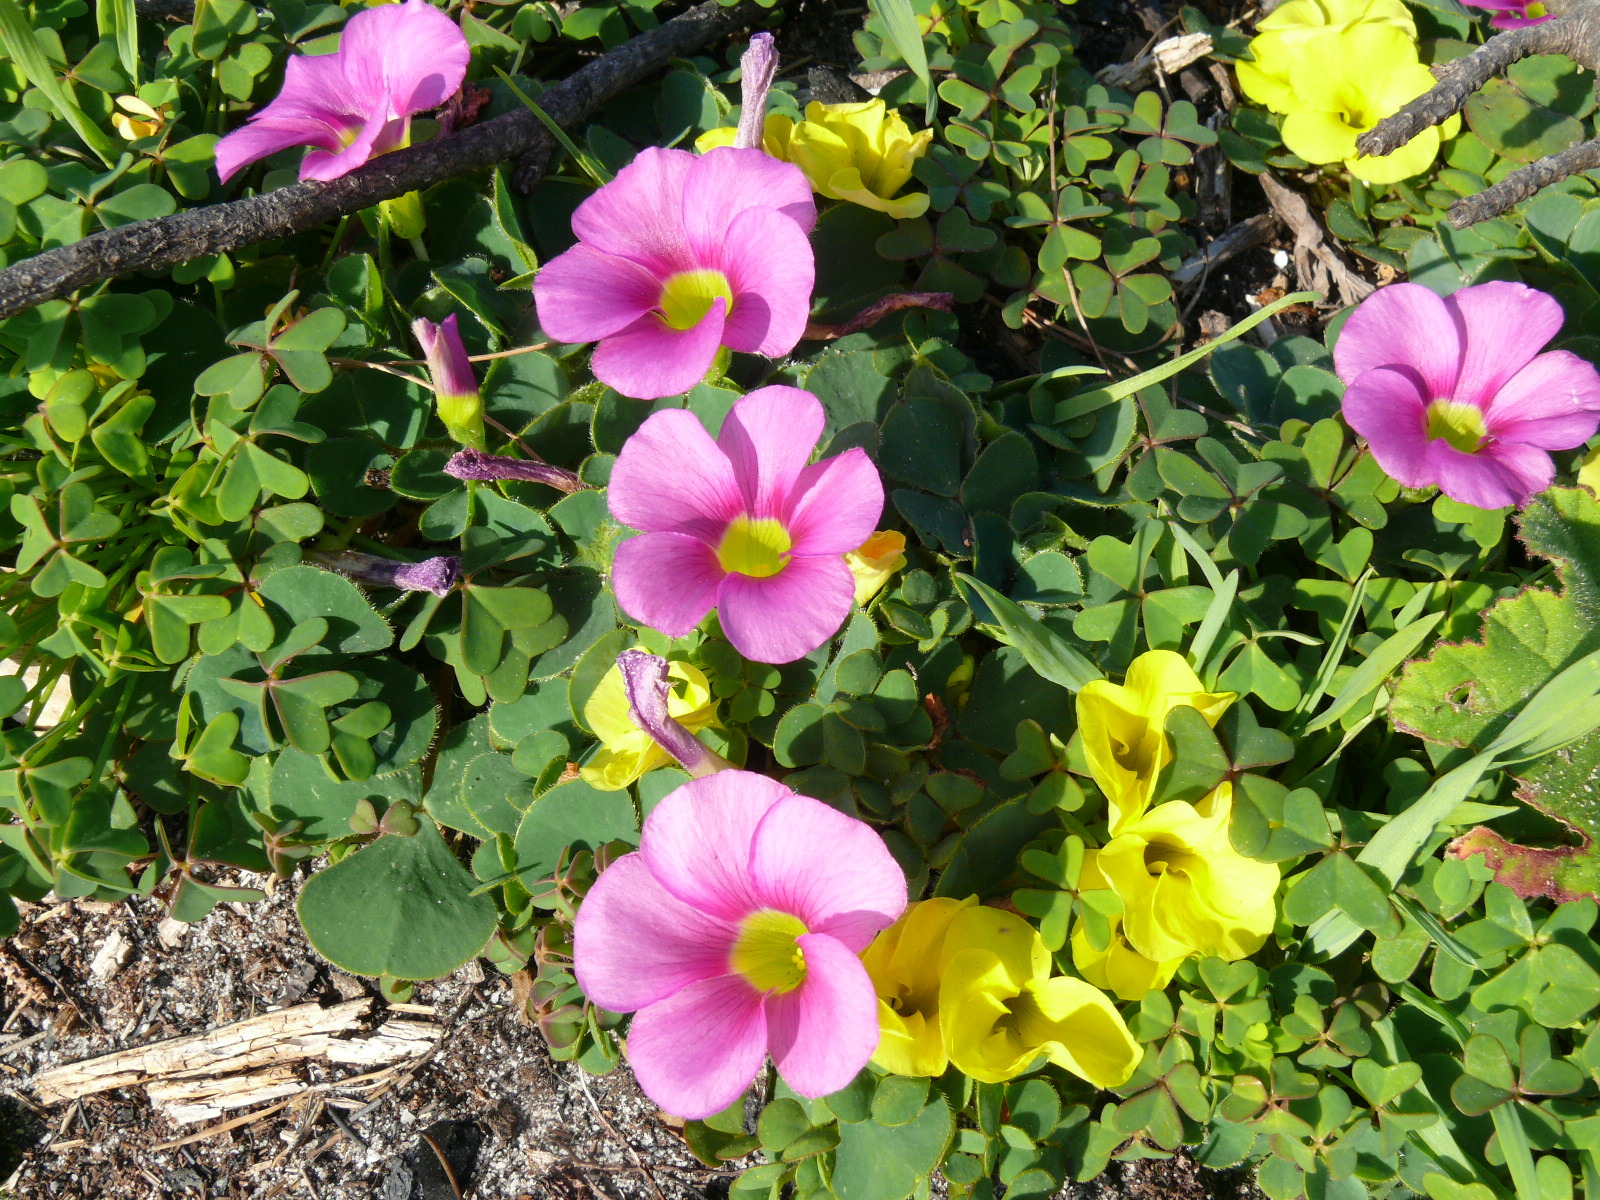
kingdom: Plantae
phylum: Tracheophyta
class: Magnoliopsida
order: Oxalidales
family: Oxalidaceae
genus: Oxalis
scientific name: Oxalis purpurea
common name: Purple woodsorrel
